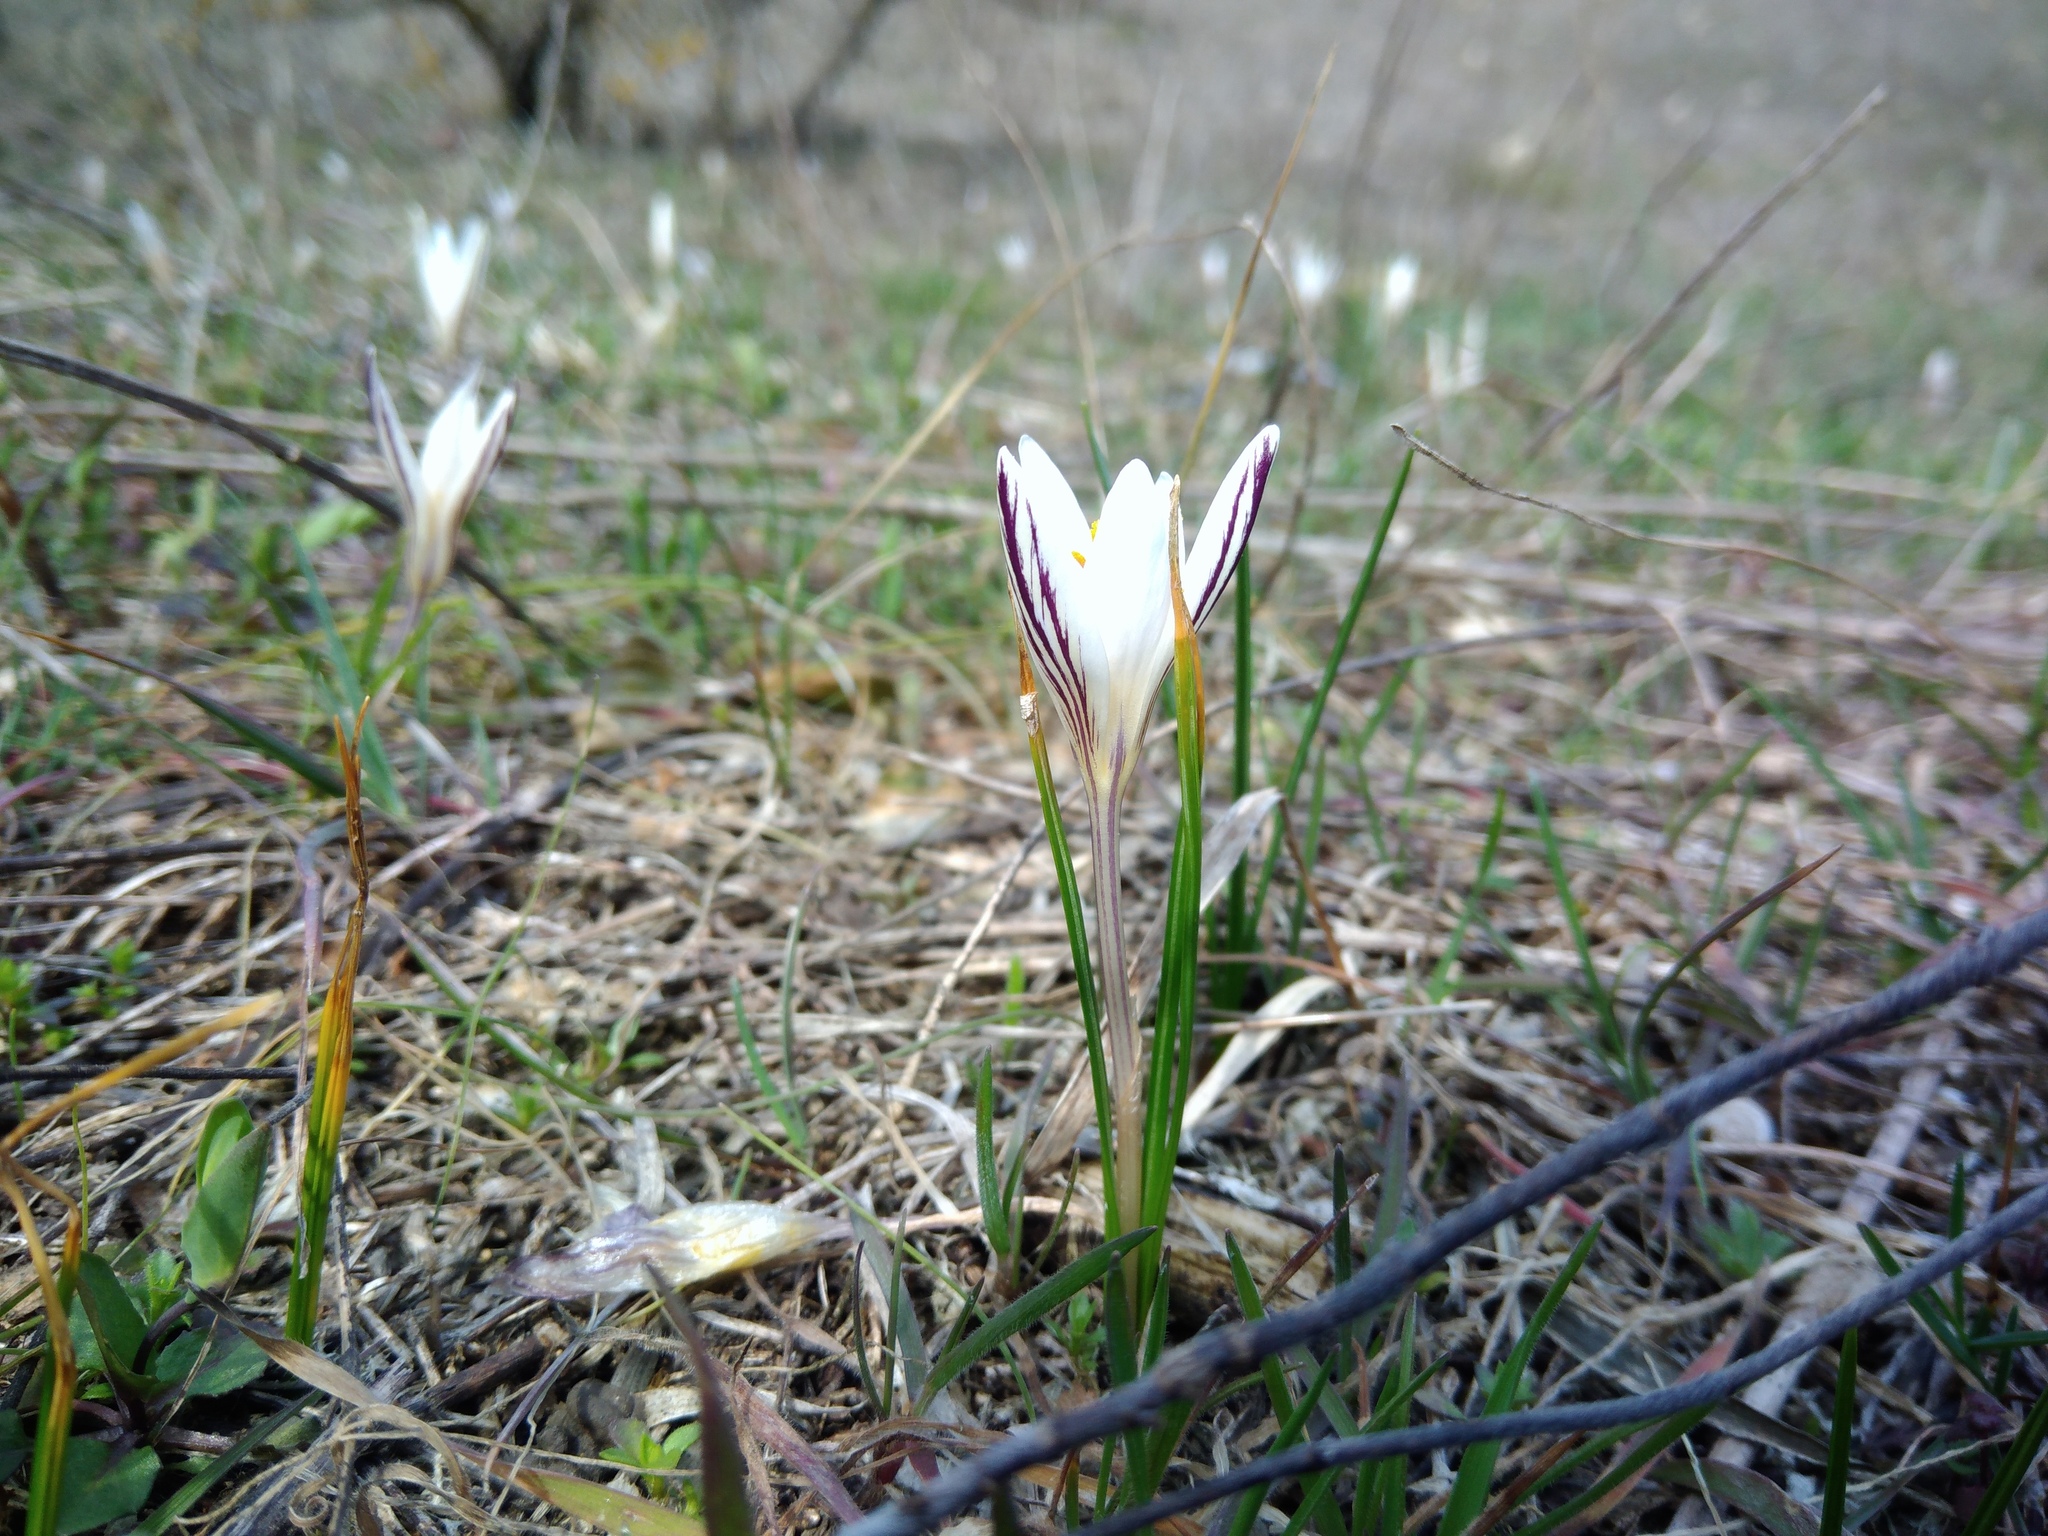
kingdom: Plantae
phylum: Tracheophyta
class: Liliopsida
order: Asparagales
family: Iridaceae
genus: Crocus
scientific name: Crocus reticulatus
